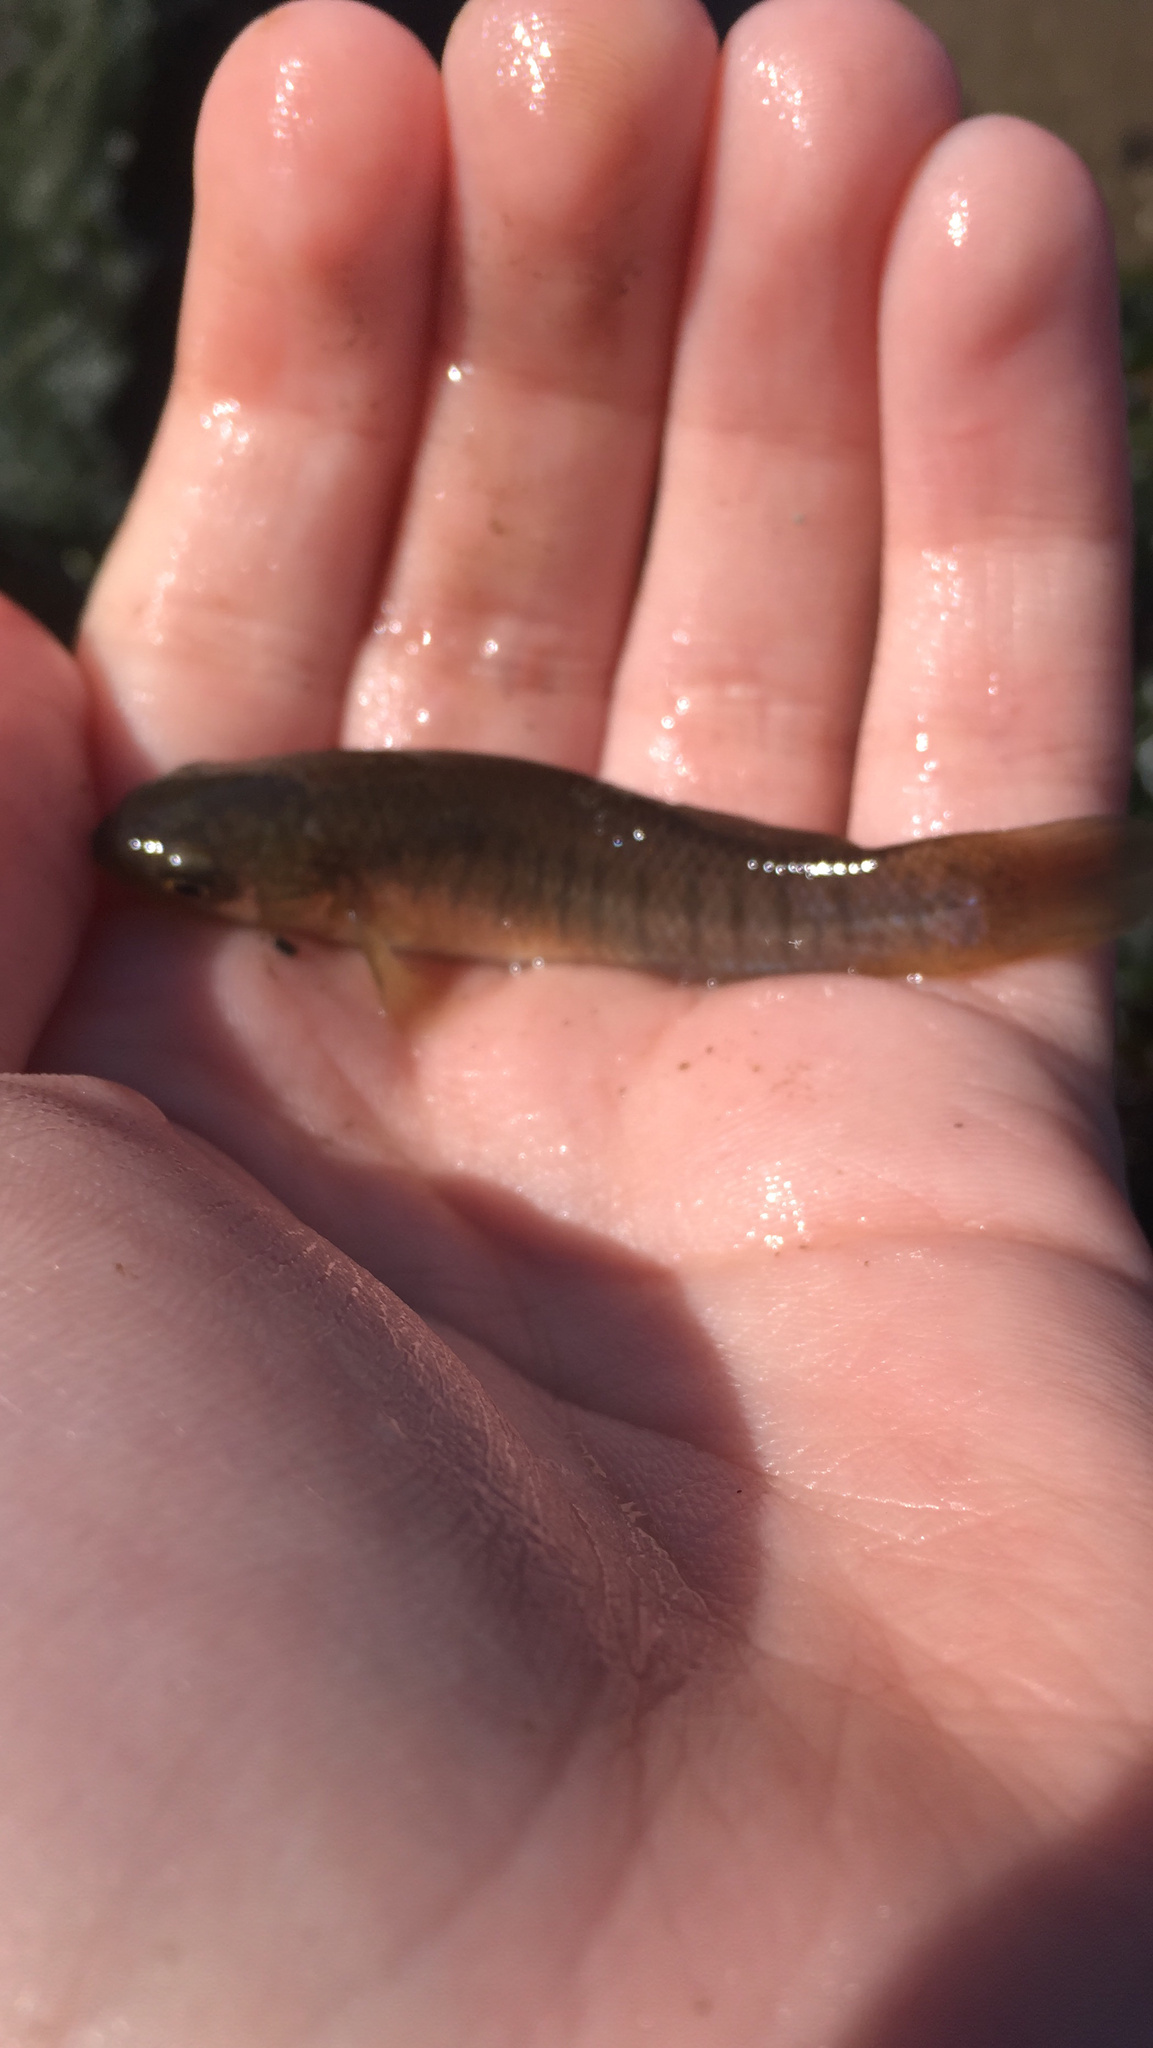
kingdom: Animalia
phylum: Chordata
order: Cyprinodontiformes
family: Fundulidae
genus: Fundulus
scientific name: Fundulus heteroclitus
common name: Mummichog
